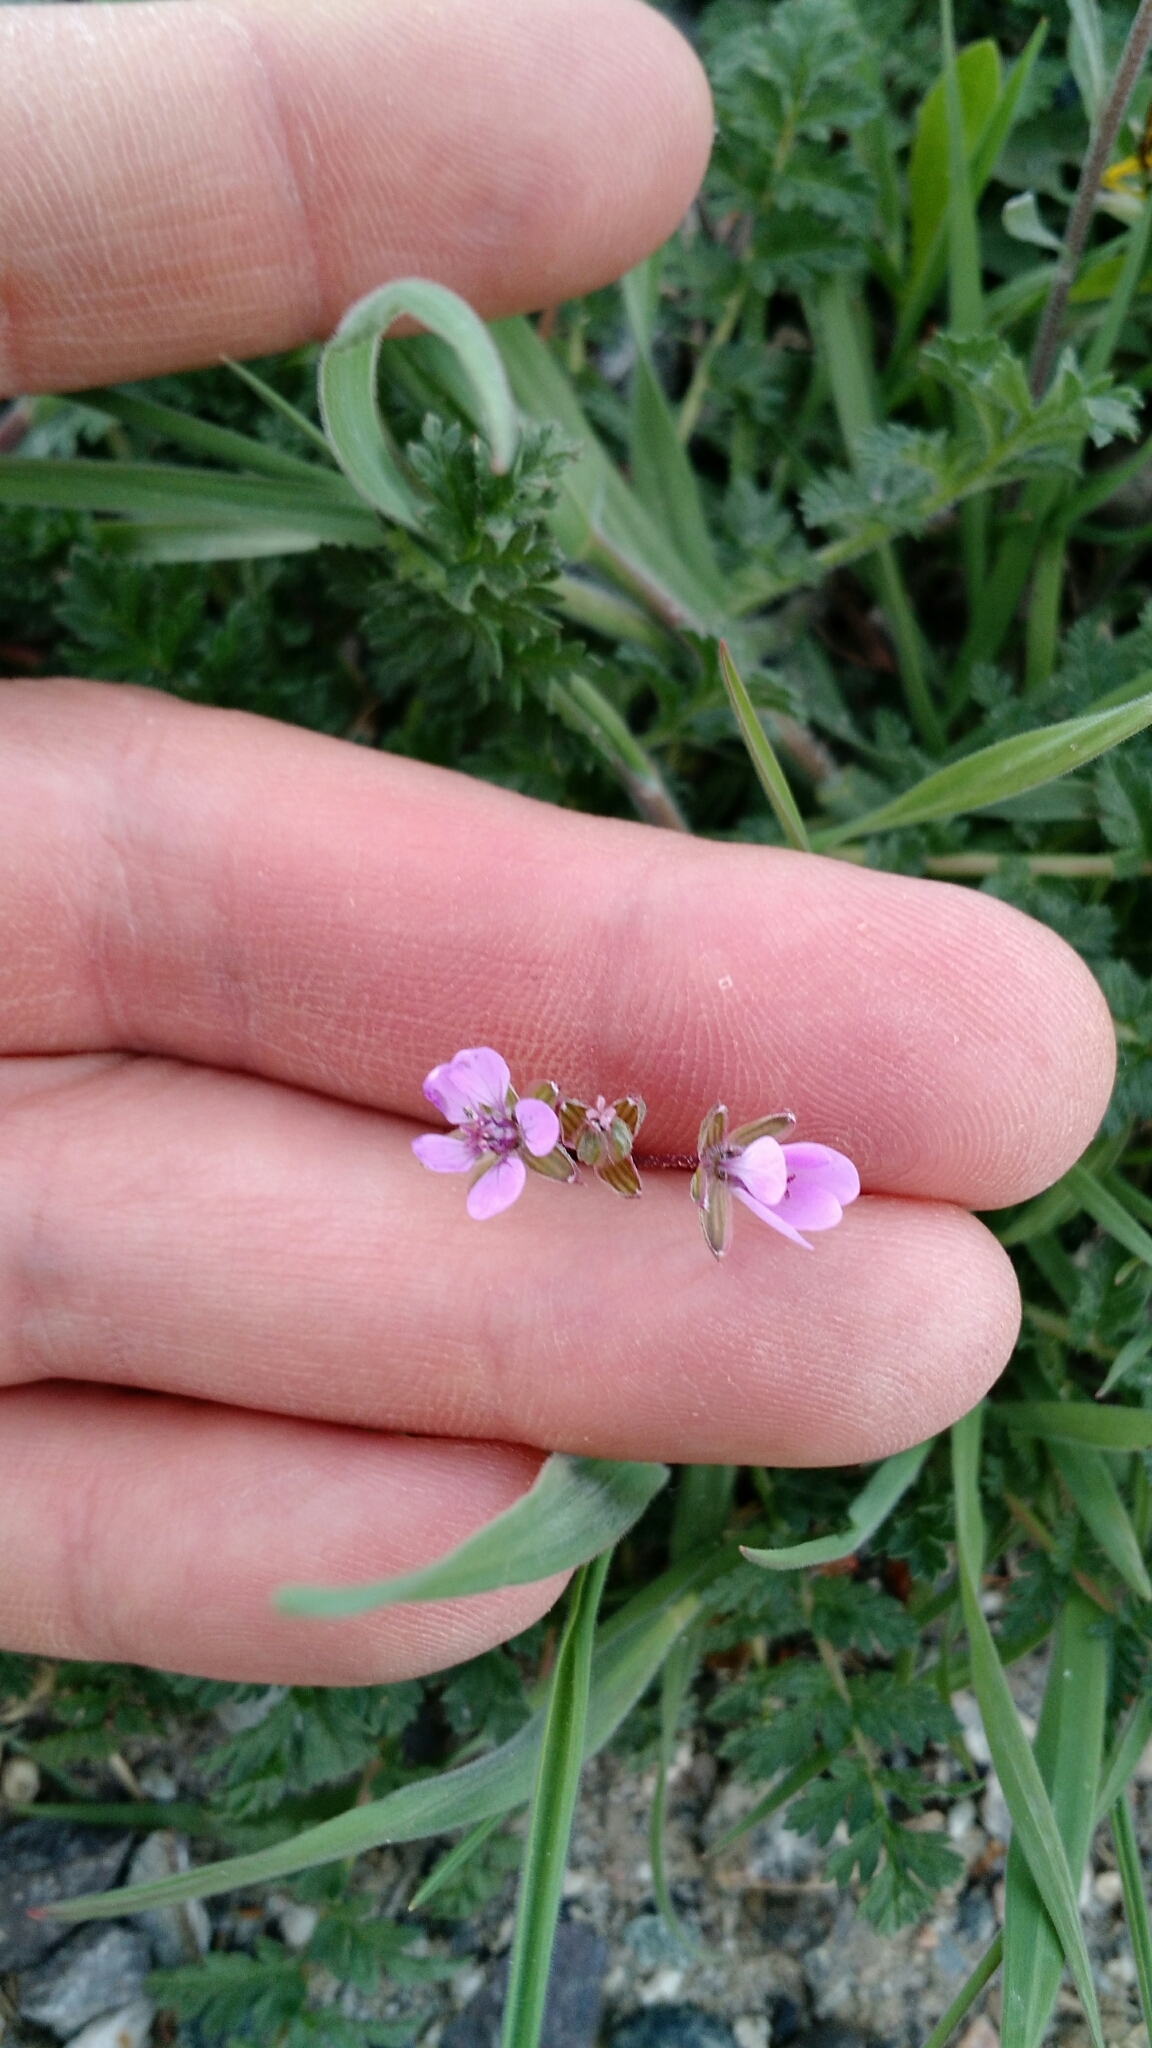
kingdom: Plantae
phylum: Tracheophyta
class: Magnoliopsida
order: Geraniales
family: Geraniaceae
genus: Erodium
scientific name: Erodium cicutarium
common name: Common stork's-bill
